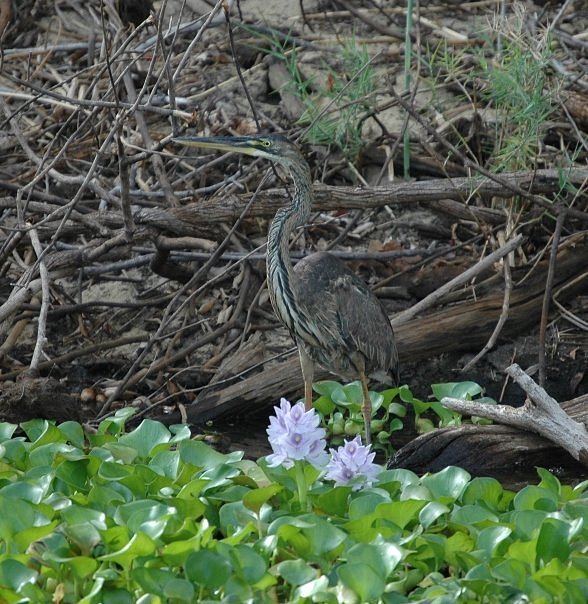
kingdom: Animalia
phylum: Chordata
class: Aves
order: Pelecaniformes
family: Ardeidae
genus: Ardea
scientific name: Ardea purpurea
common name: Purple heron
